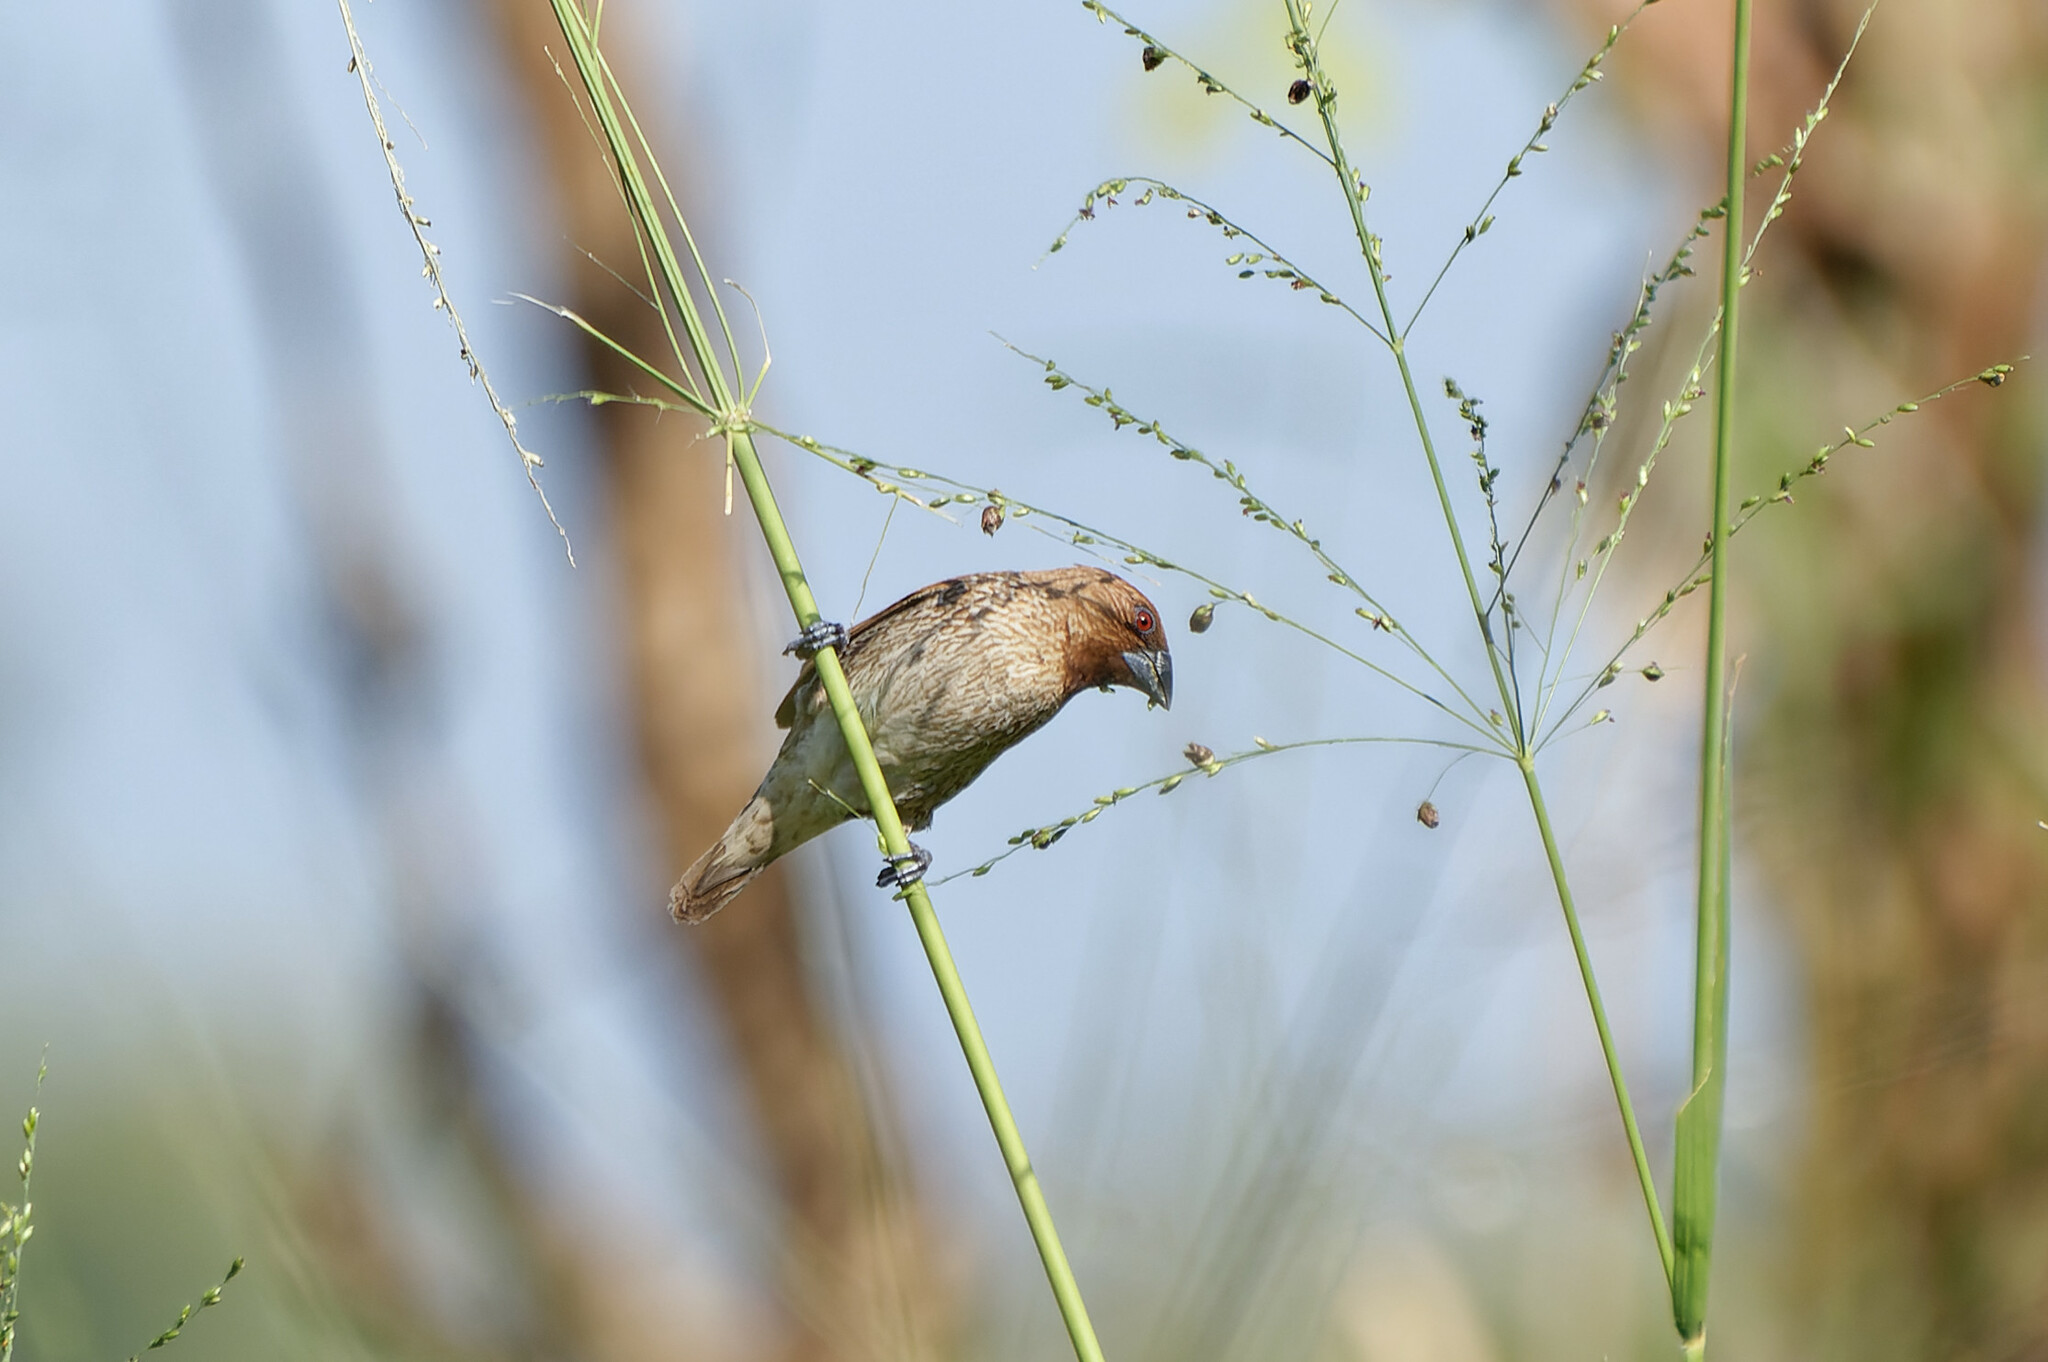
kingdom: Animalia
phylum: Chordata
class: Aves
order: Passeriformes
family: Estrildidae
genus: Lonchura
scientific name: Lonchura punctulata
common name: Scaly-breasted munia
